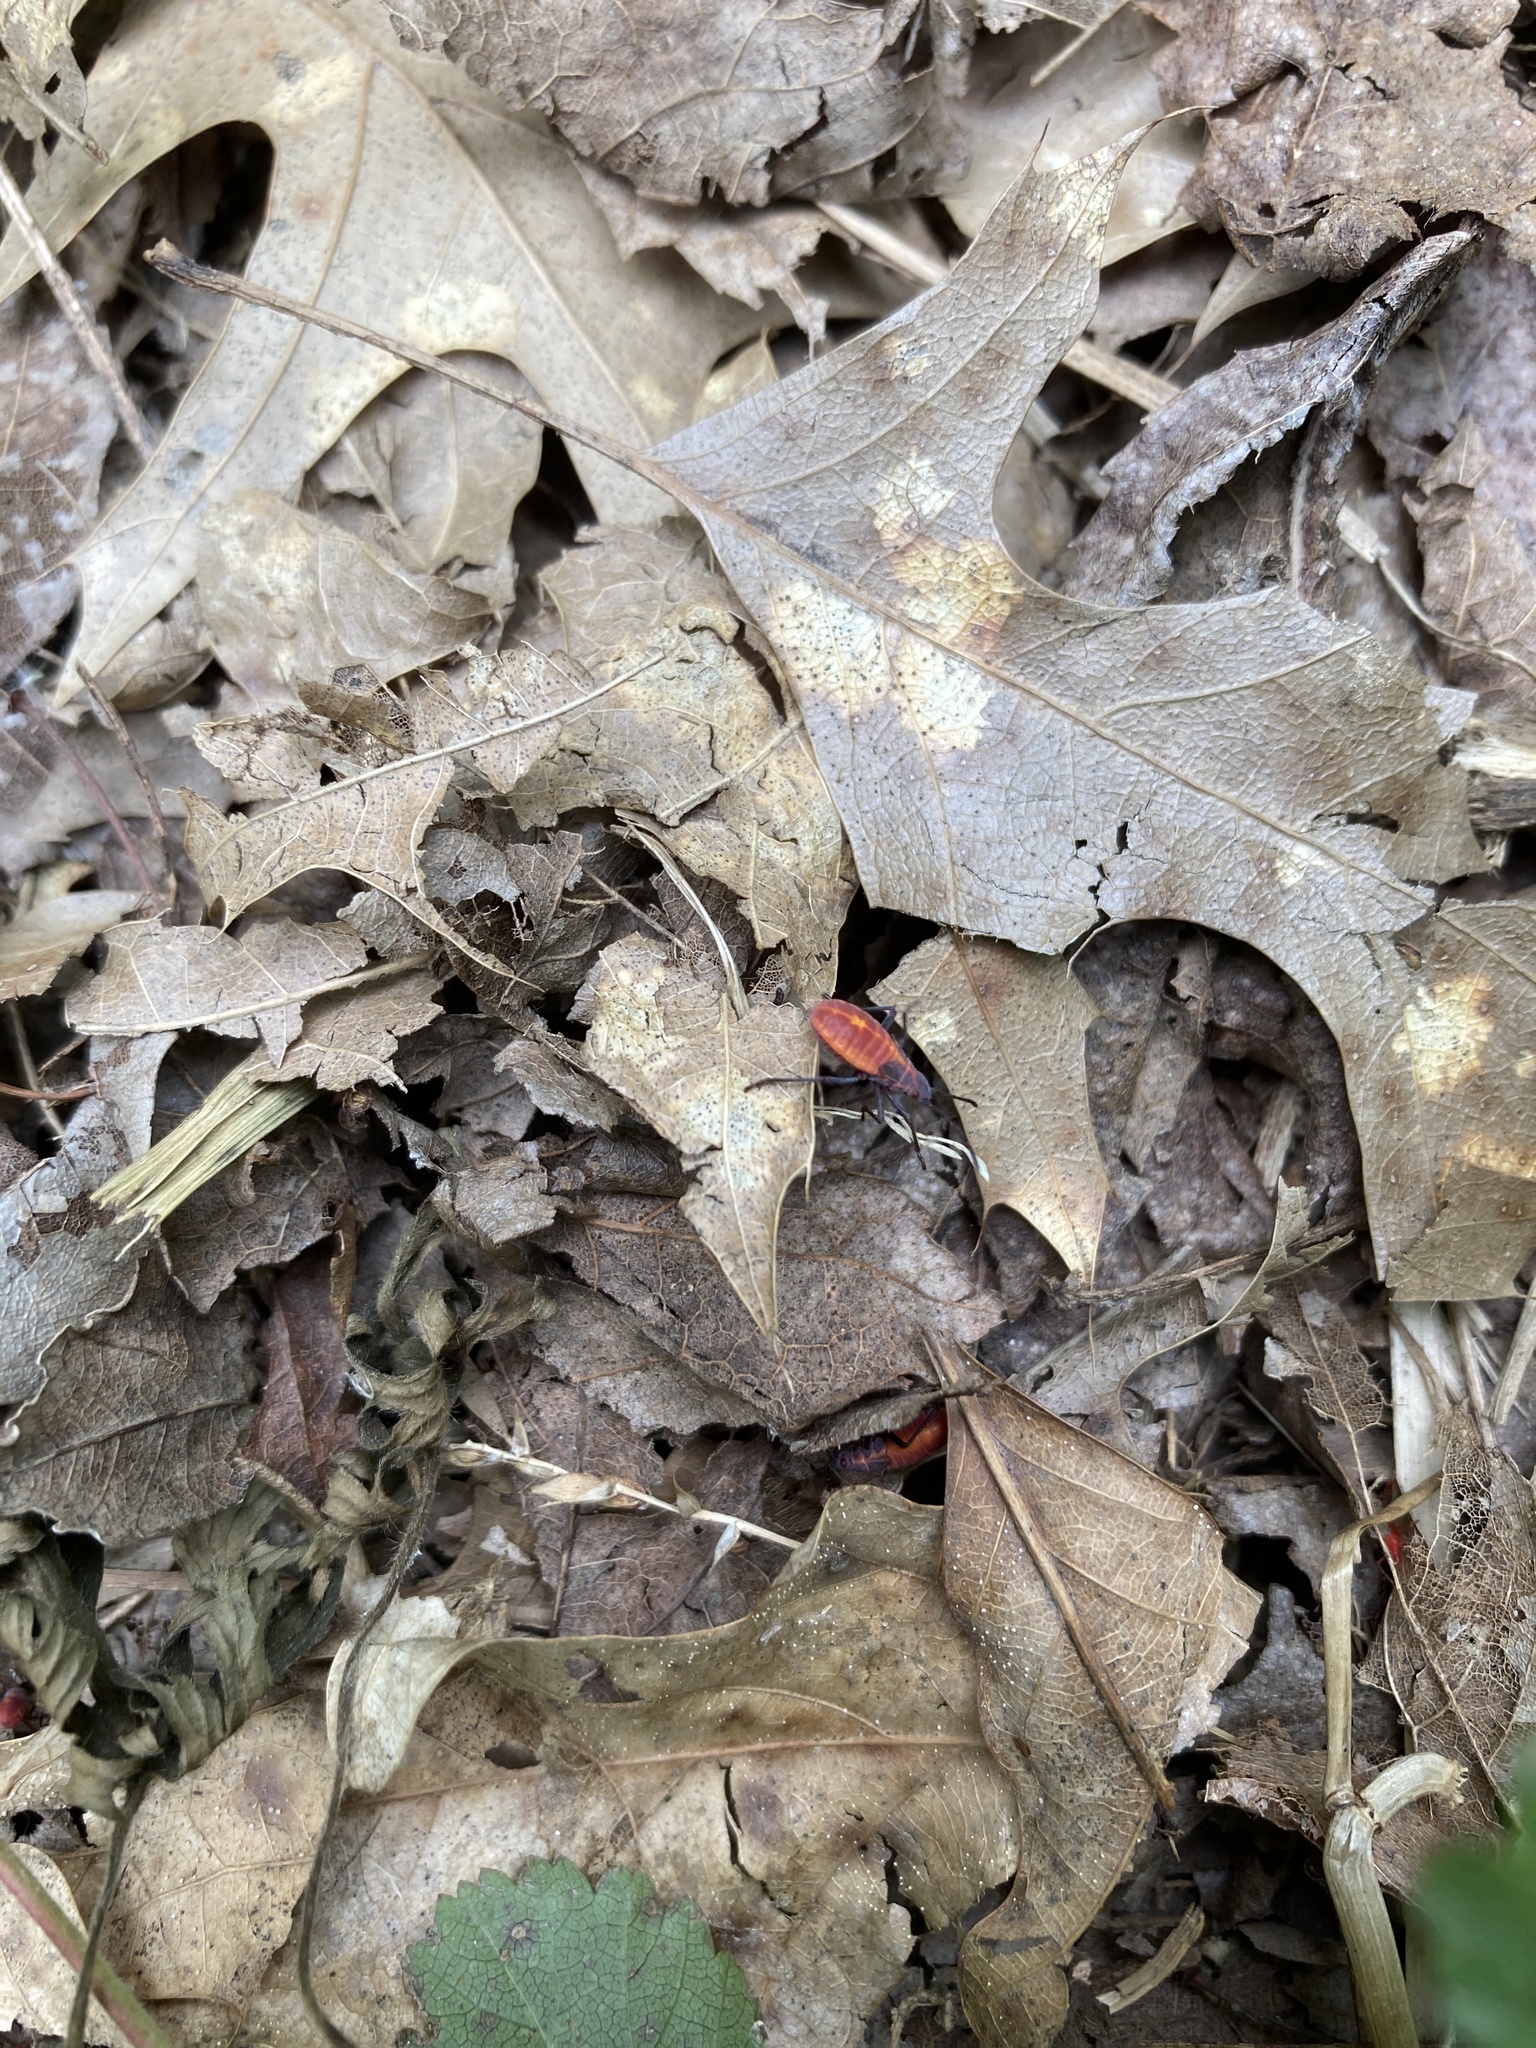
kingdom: Animalia
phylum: Arthropoda
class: Insecta
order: Hemiptera
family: Rhopalidae
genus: Boisea
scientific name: Boisea trivittata
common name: Boxelder bug
